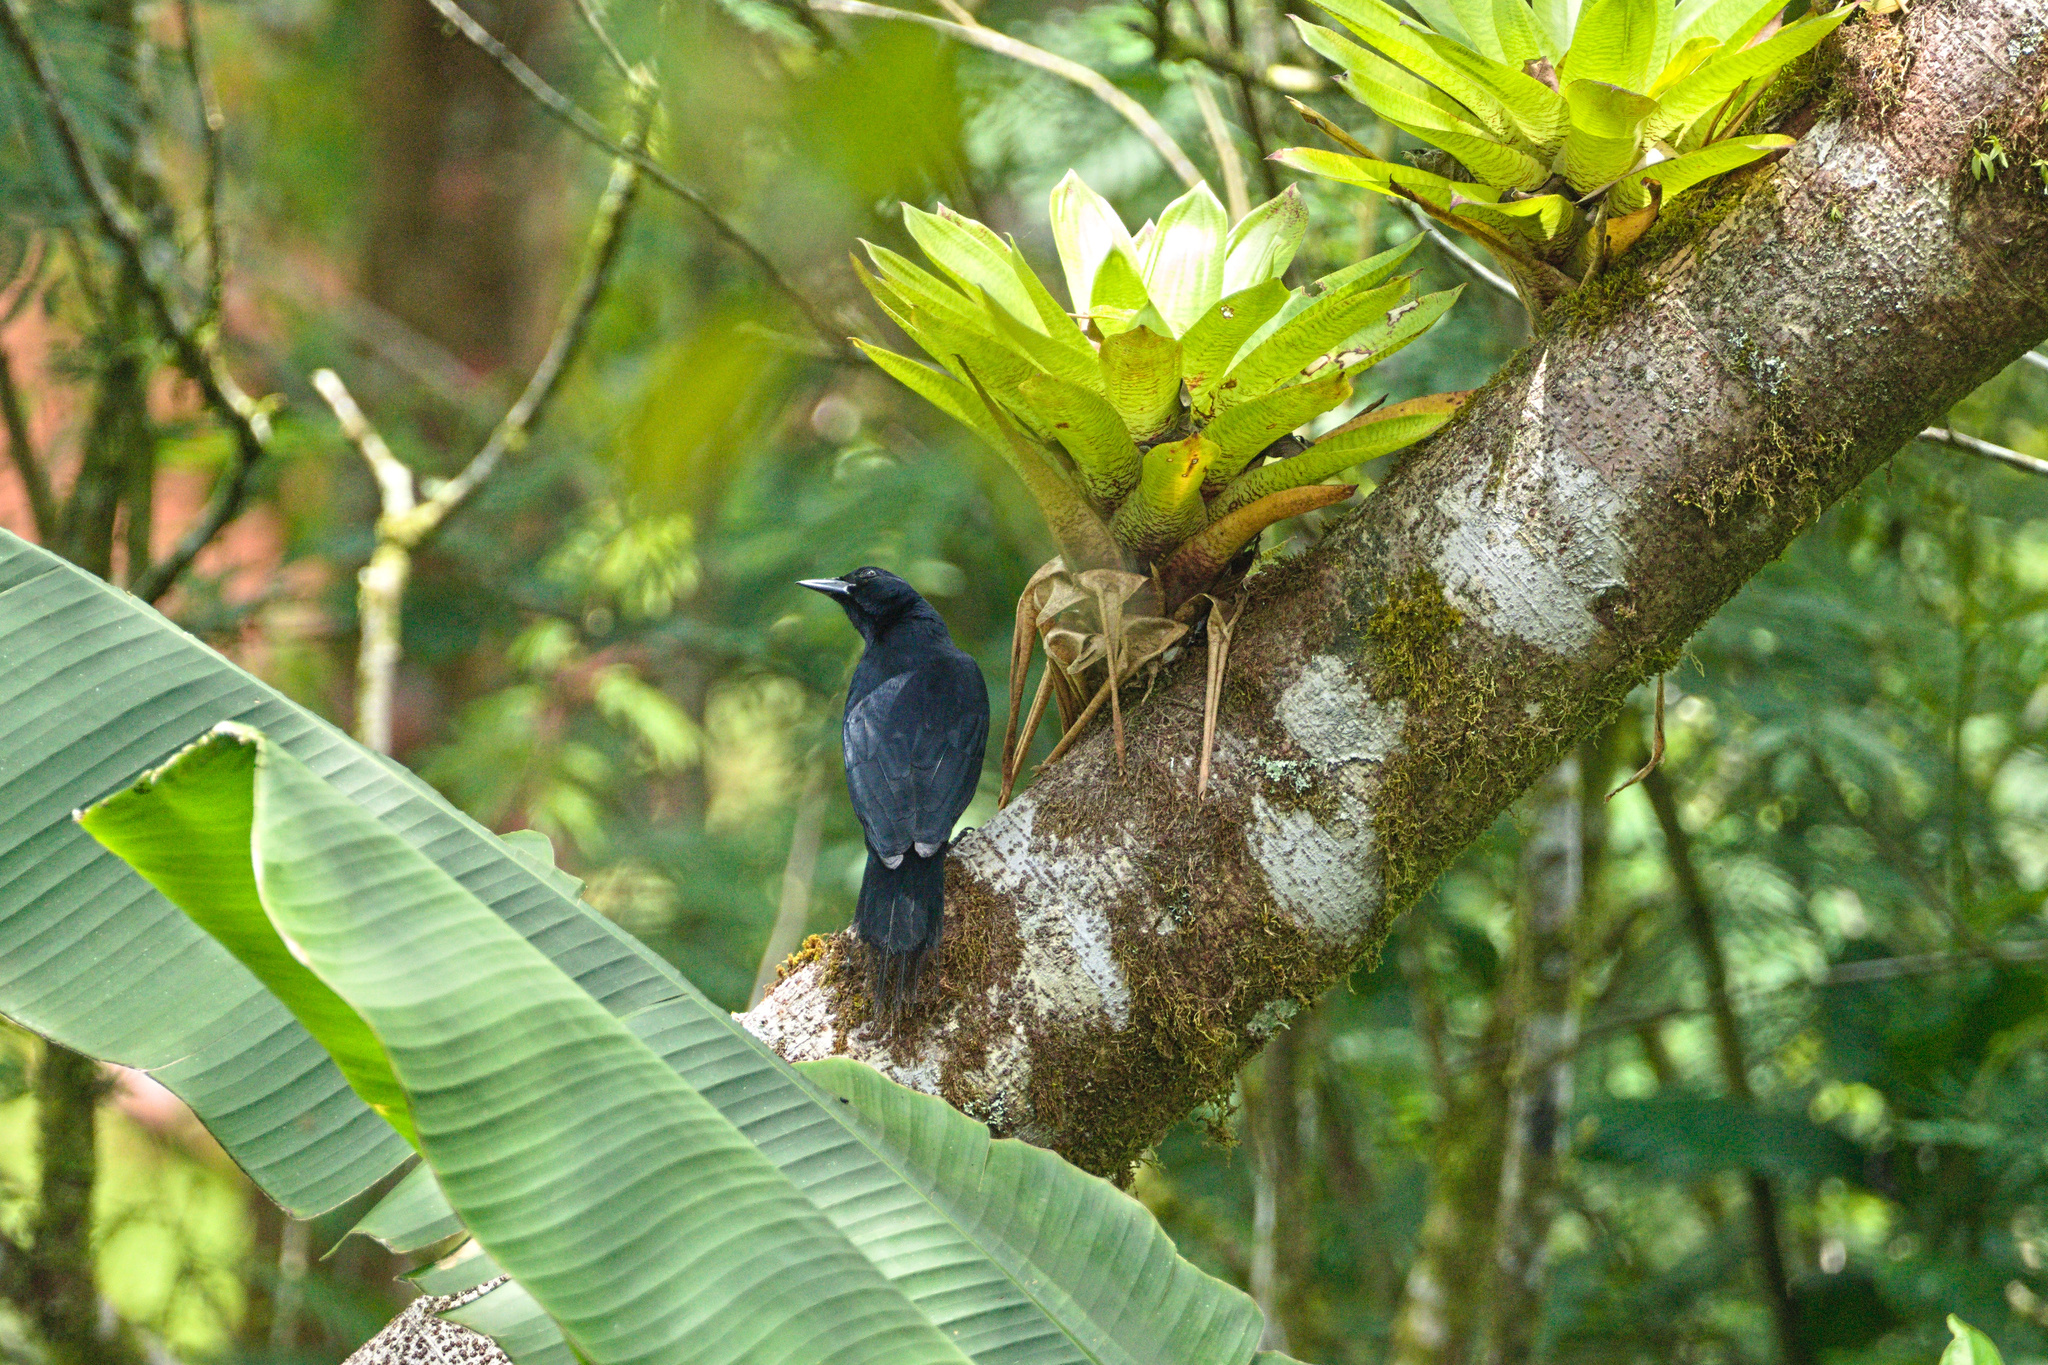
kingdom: Animalia
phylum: Chordata
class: Aves
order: Passeriformes
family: Icteridae
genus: Dives
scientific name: Dives dives
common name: Melodious blackbird
